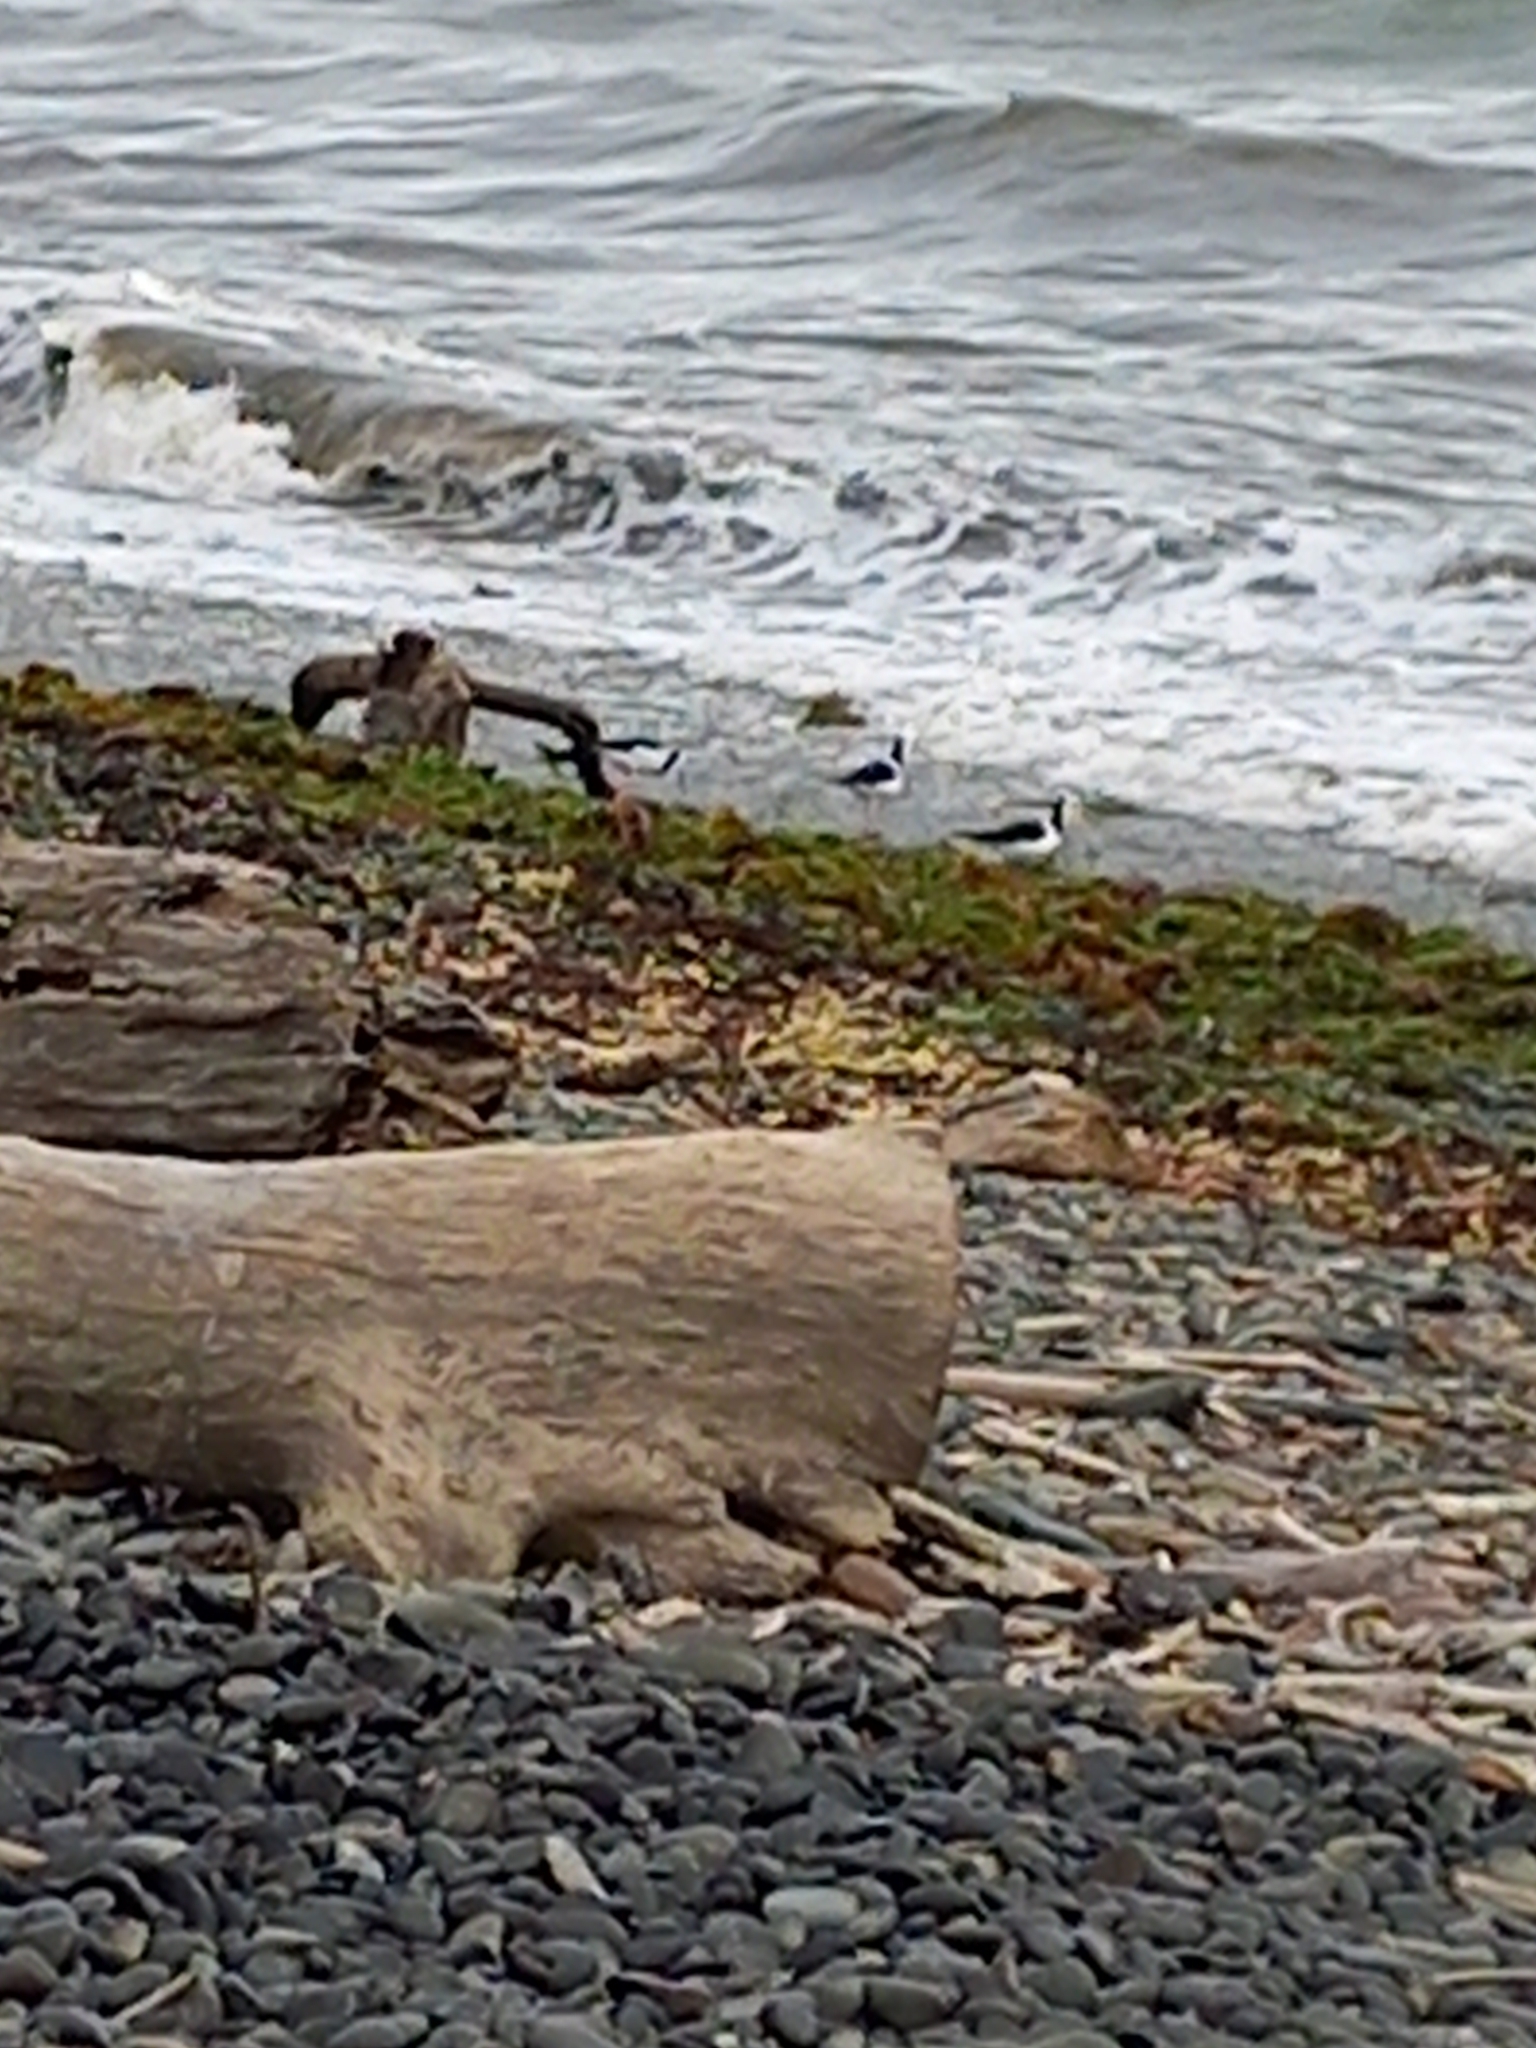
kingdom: Animalia
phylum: Chordata
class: Aves
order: Charadriiformes
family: Recurvirostridae
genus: Himantopus
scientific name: Himantopus leucocephalus
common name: White-headed stilt
